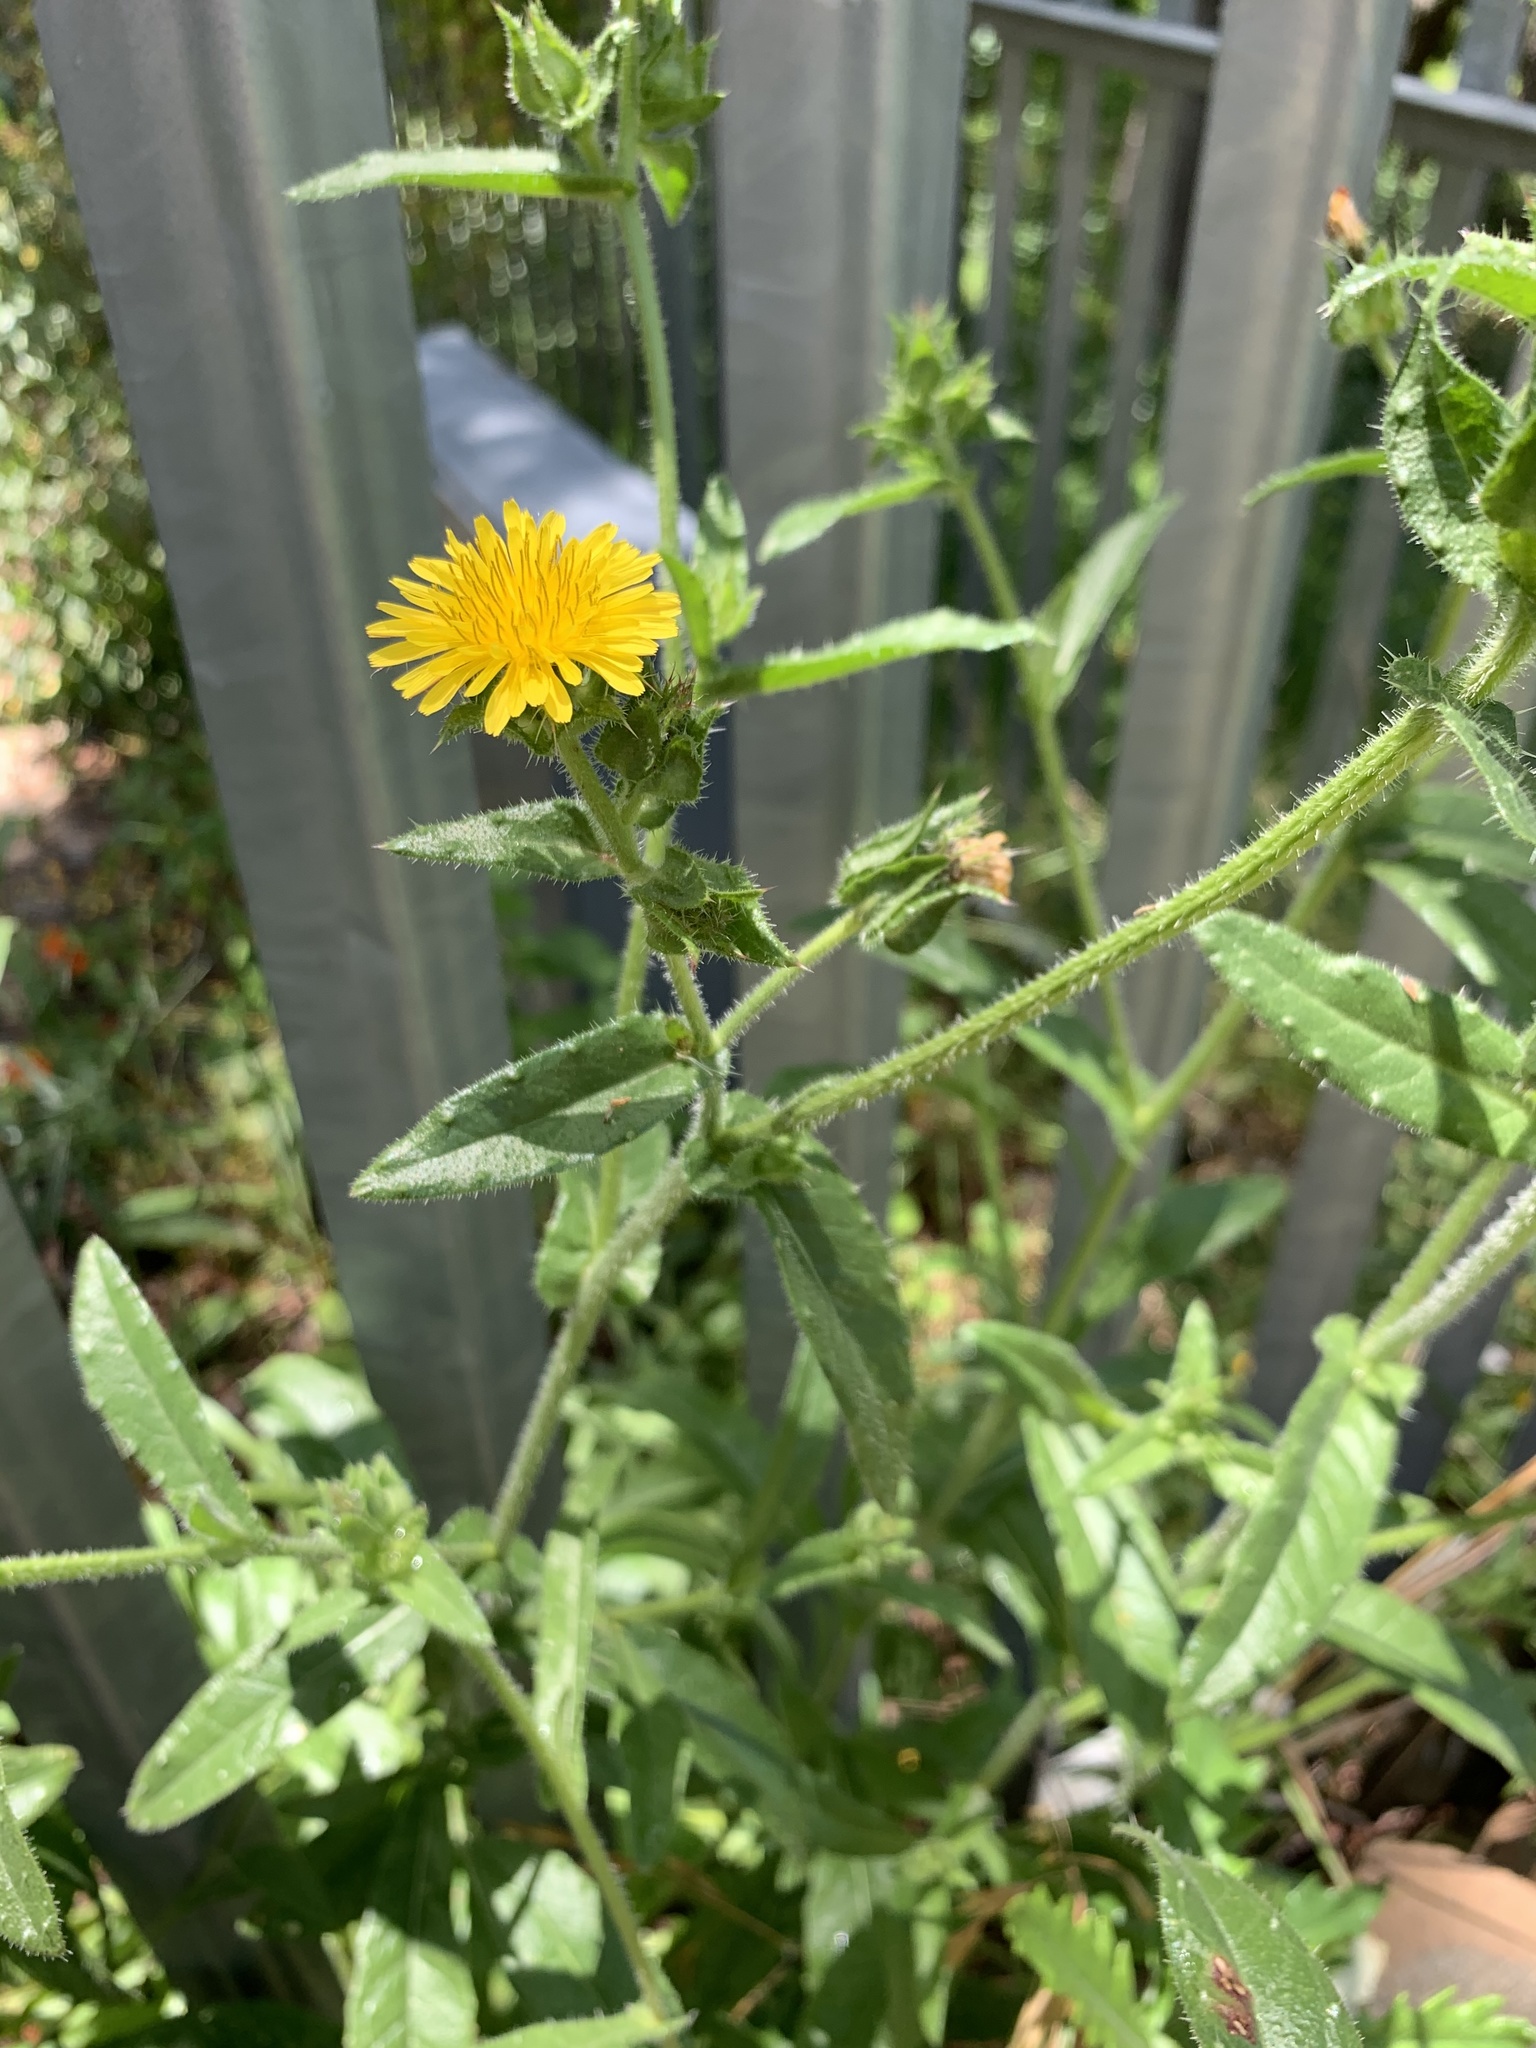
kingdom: Plantae
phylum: Tracheophyta
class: Magnoliopsida
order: Asterales
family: Asteraceae
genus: Helminthotheca
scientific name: Helminthotheca echioides
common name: Ox-tongue
